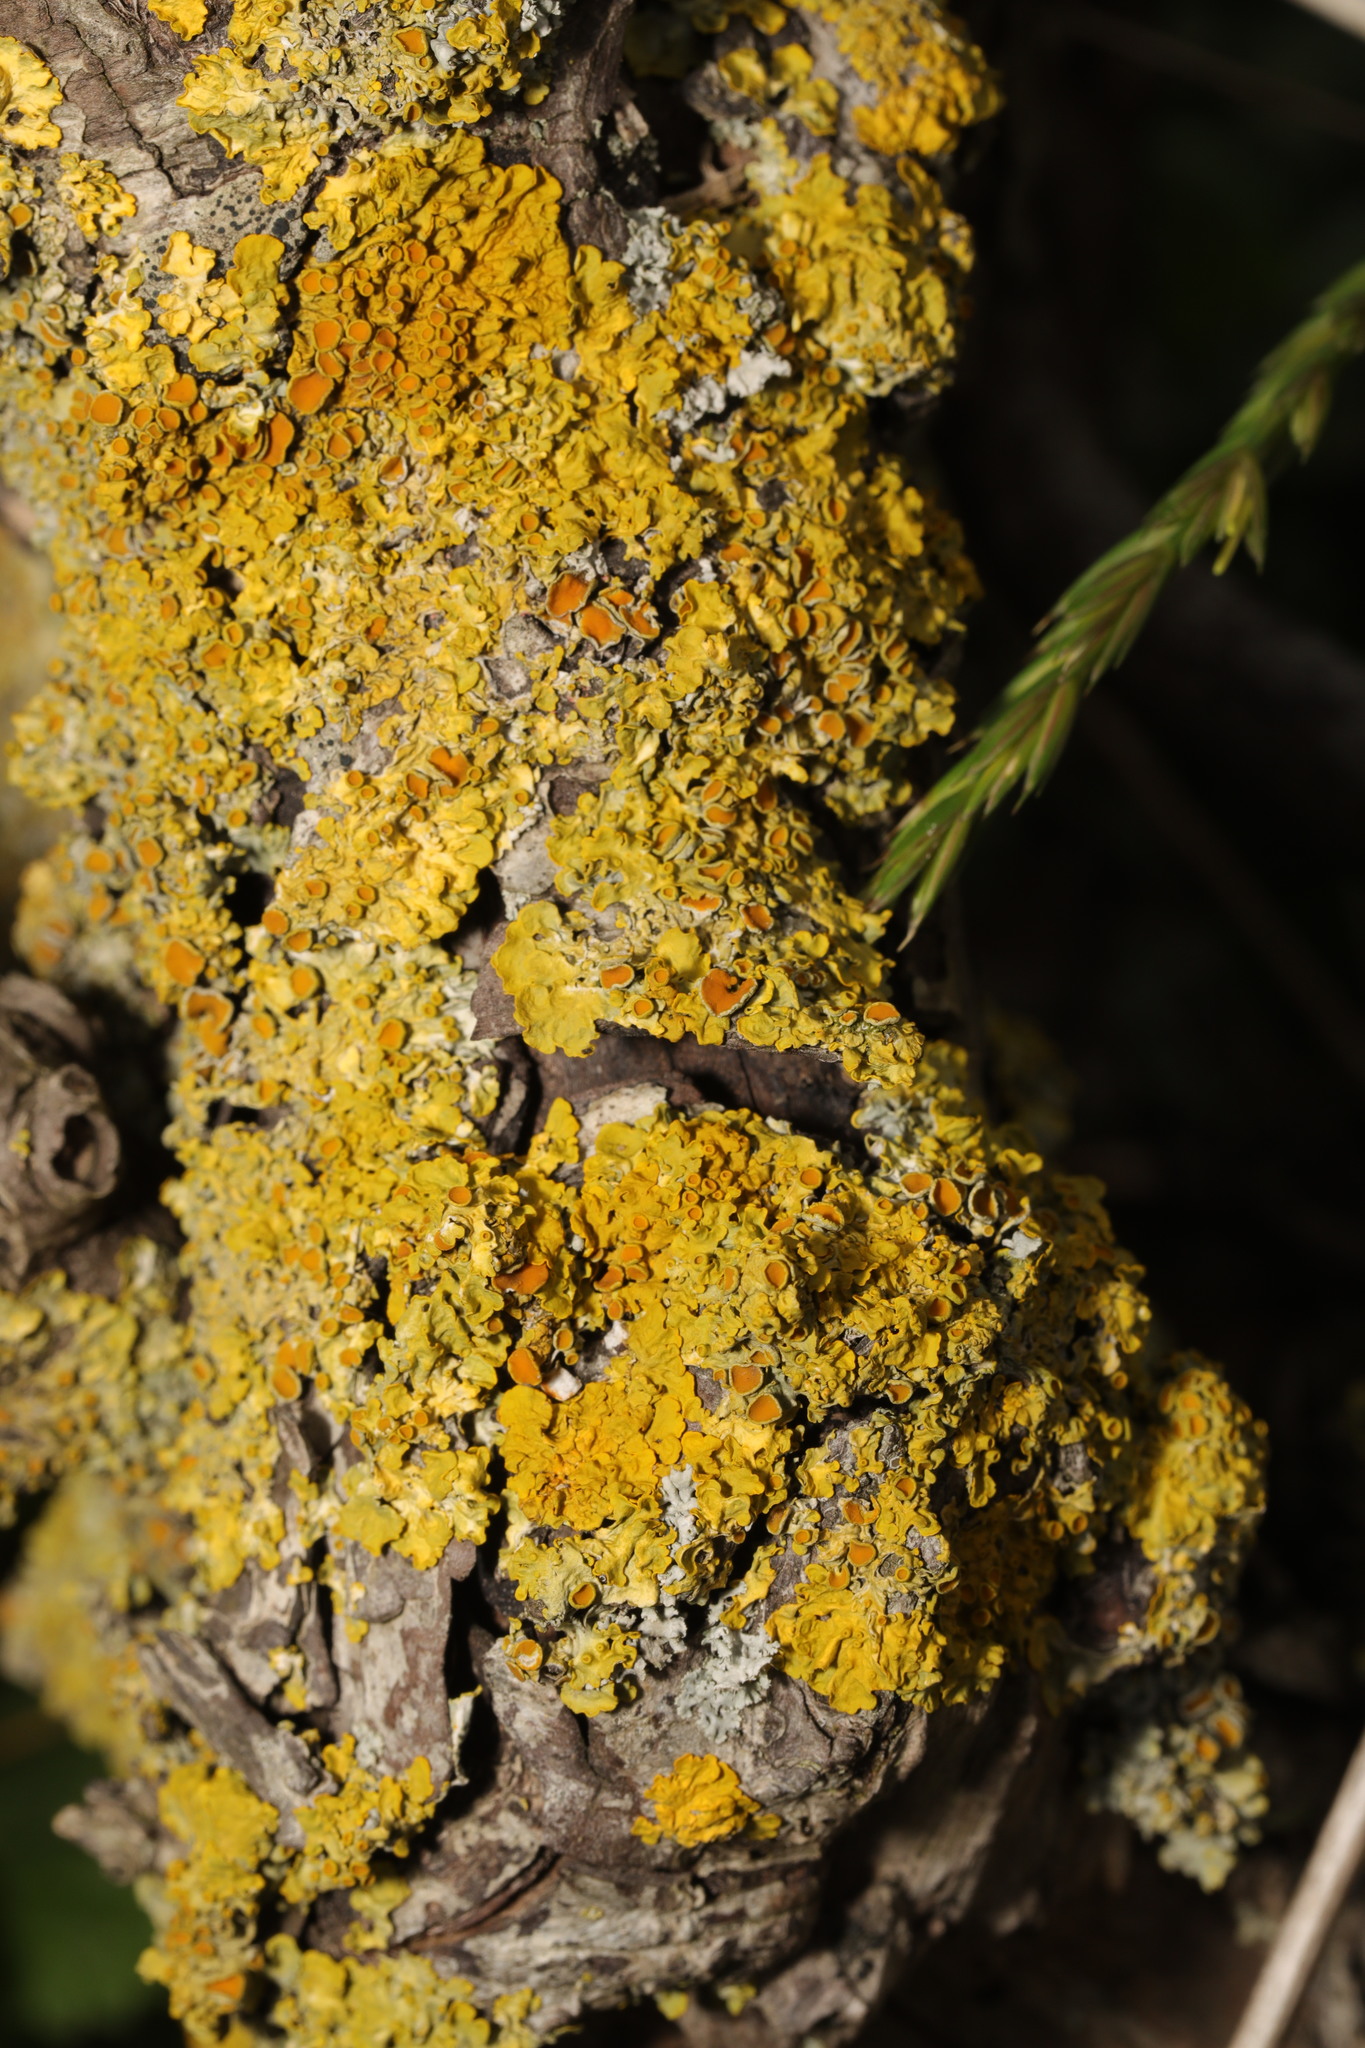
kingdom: Fungi
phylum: Ascomycota
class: Lecanoromycetes
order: Teloschistales
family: Teloschistaceae
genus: Xanthoria
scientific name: Xanthoria parietina
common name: Common orange lichen
